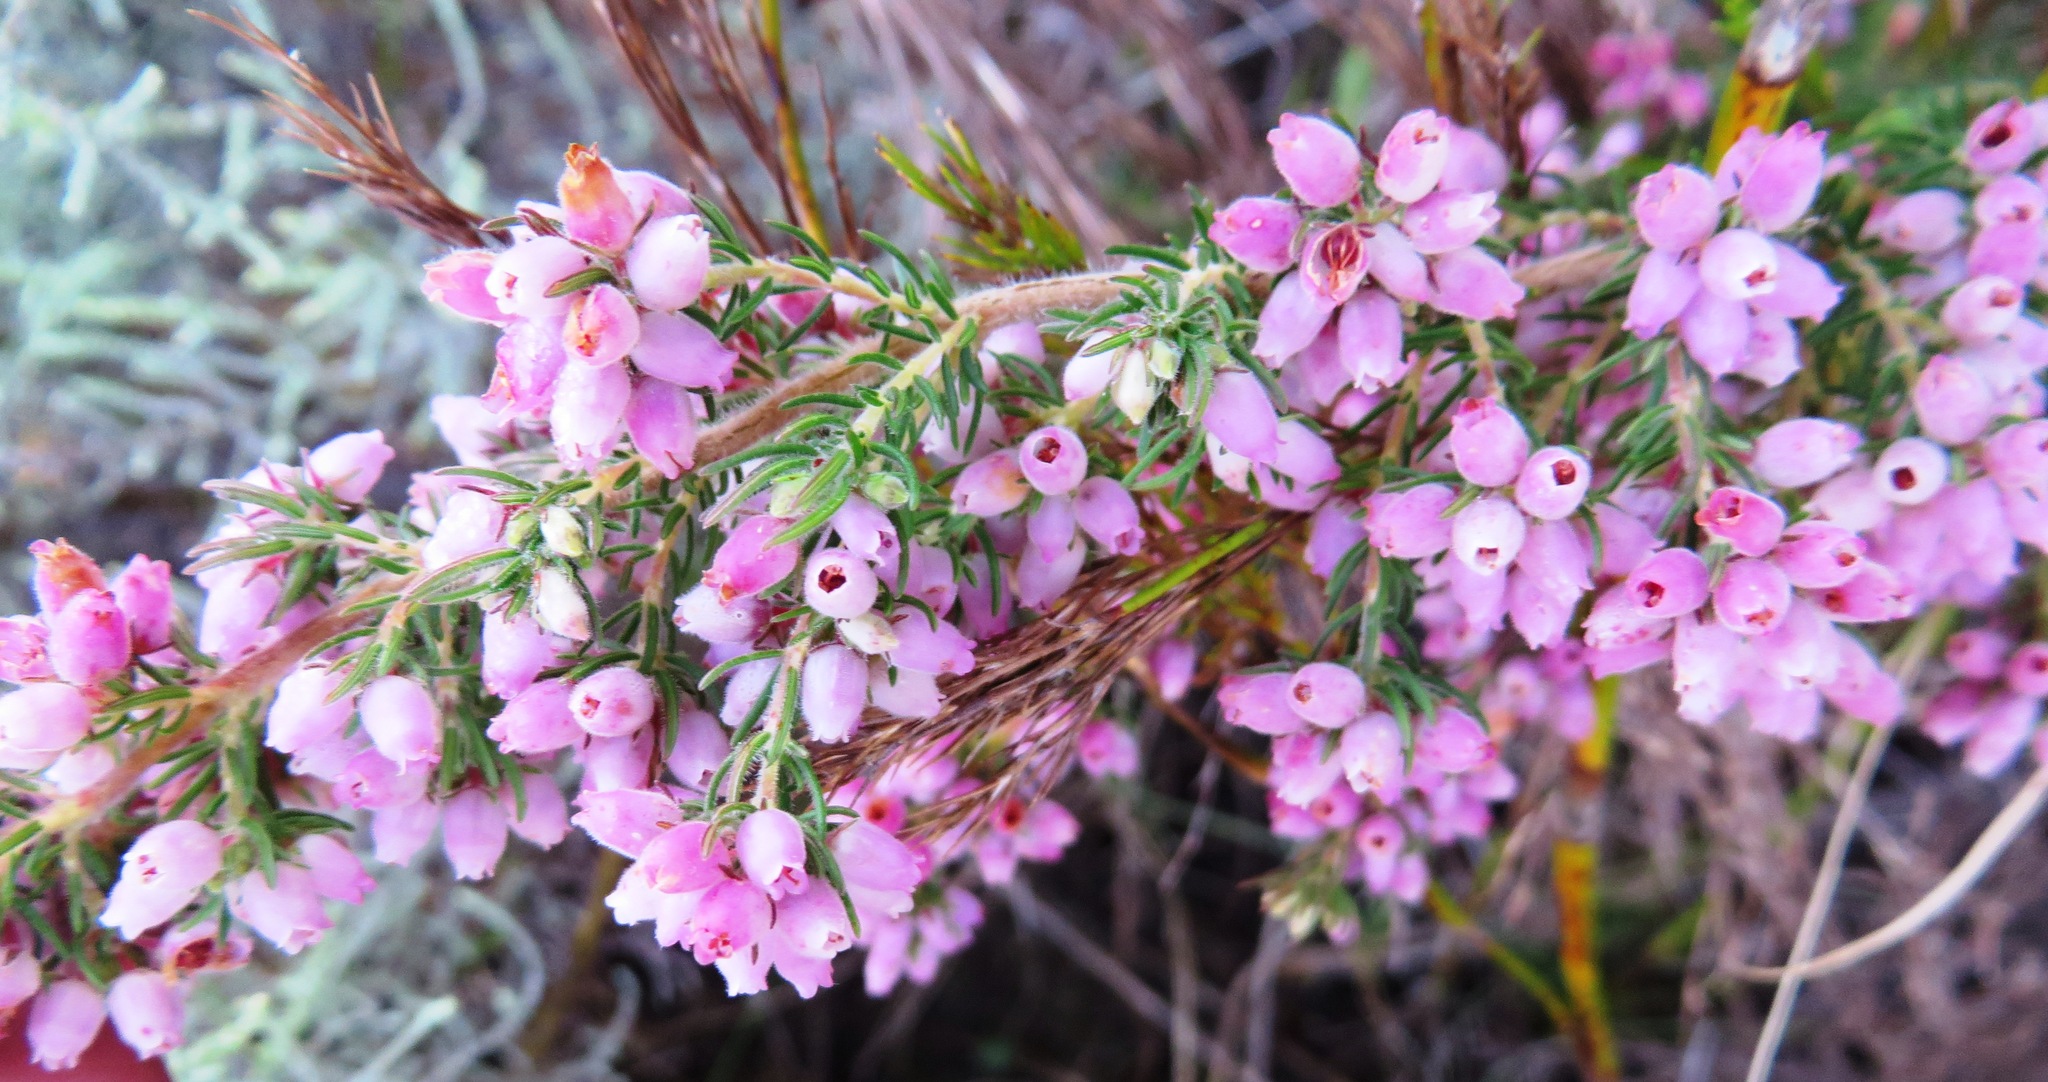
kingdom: Plantae
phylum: Tracheophyta
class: Magnoliopsida
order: Ericales
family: Ericaceae
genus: Erica
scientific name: Erica hirtiflora
